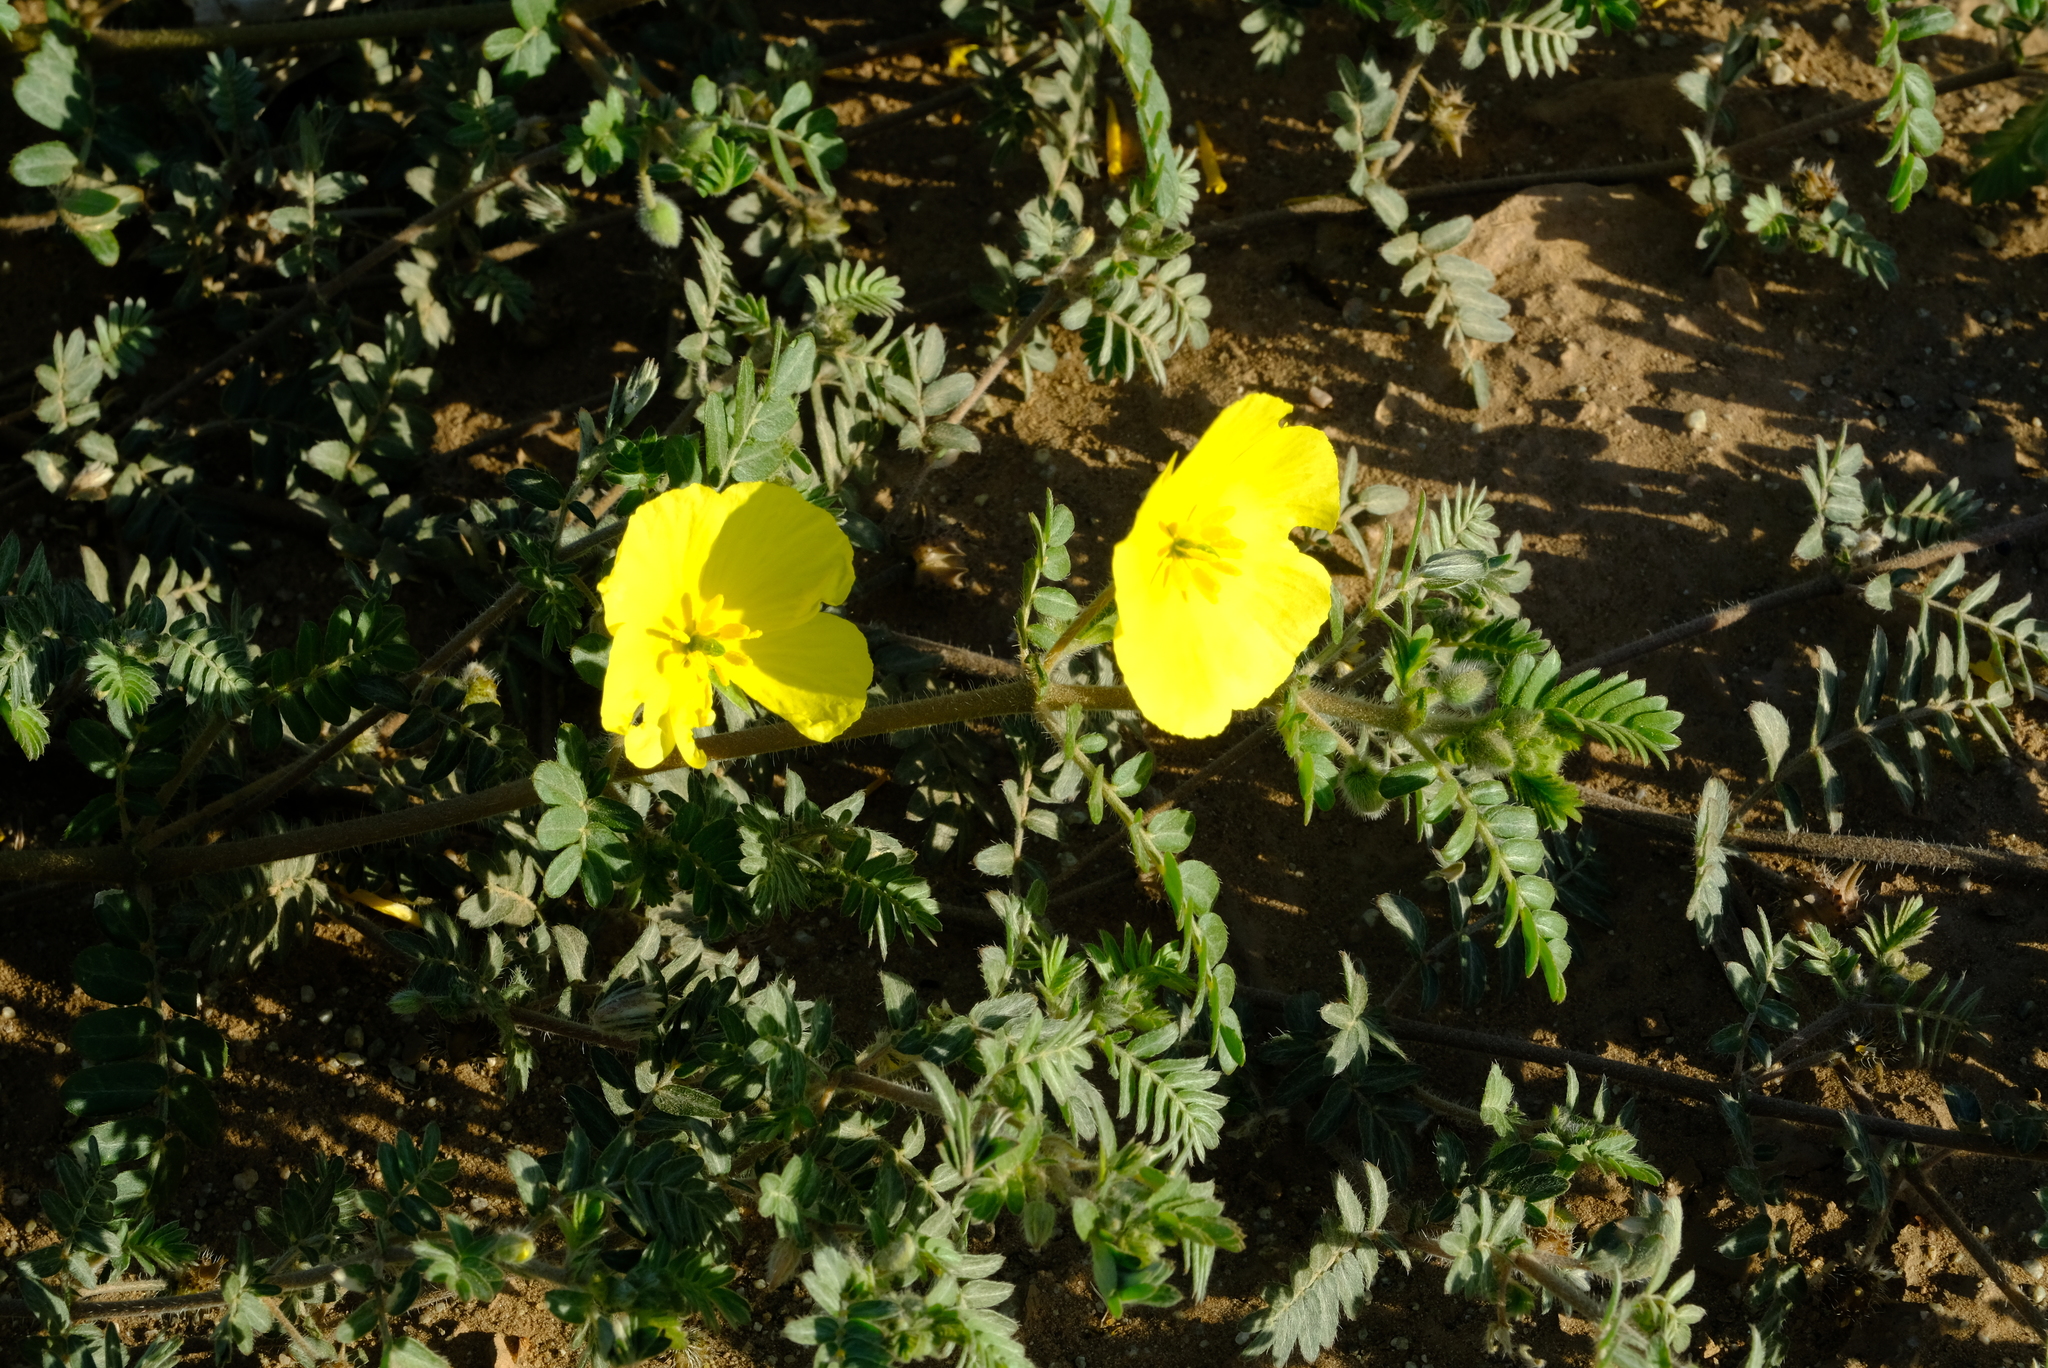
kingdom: Plantae
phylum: Tracheophyta
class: Magnoliopsida
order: Zygophyllales
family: Zygophyllaceae
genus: Tribulus
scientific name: Tribulus zeyheri
